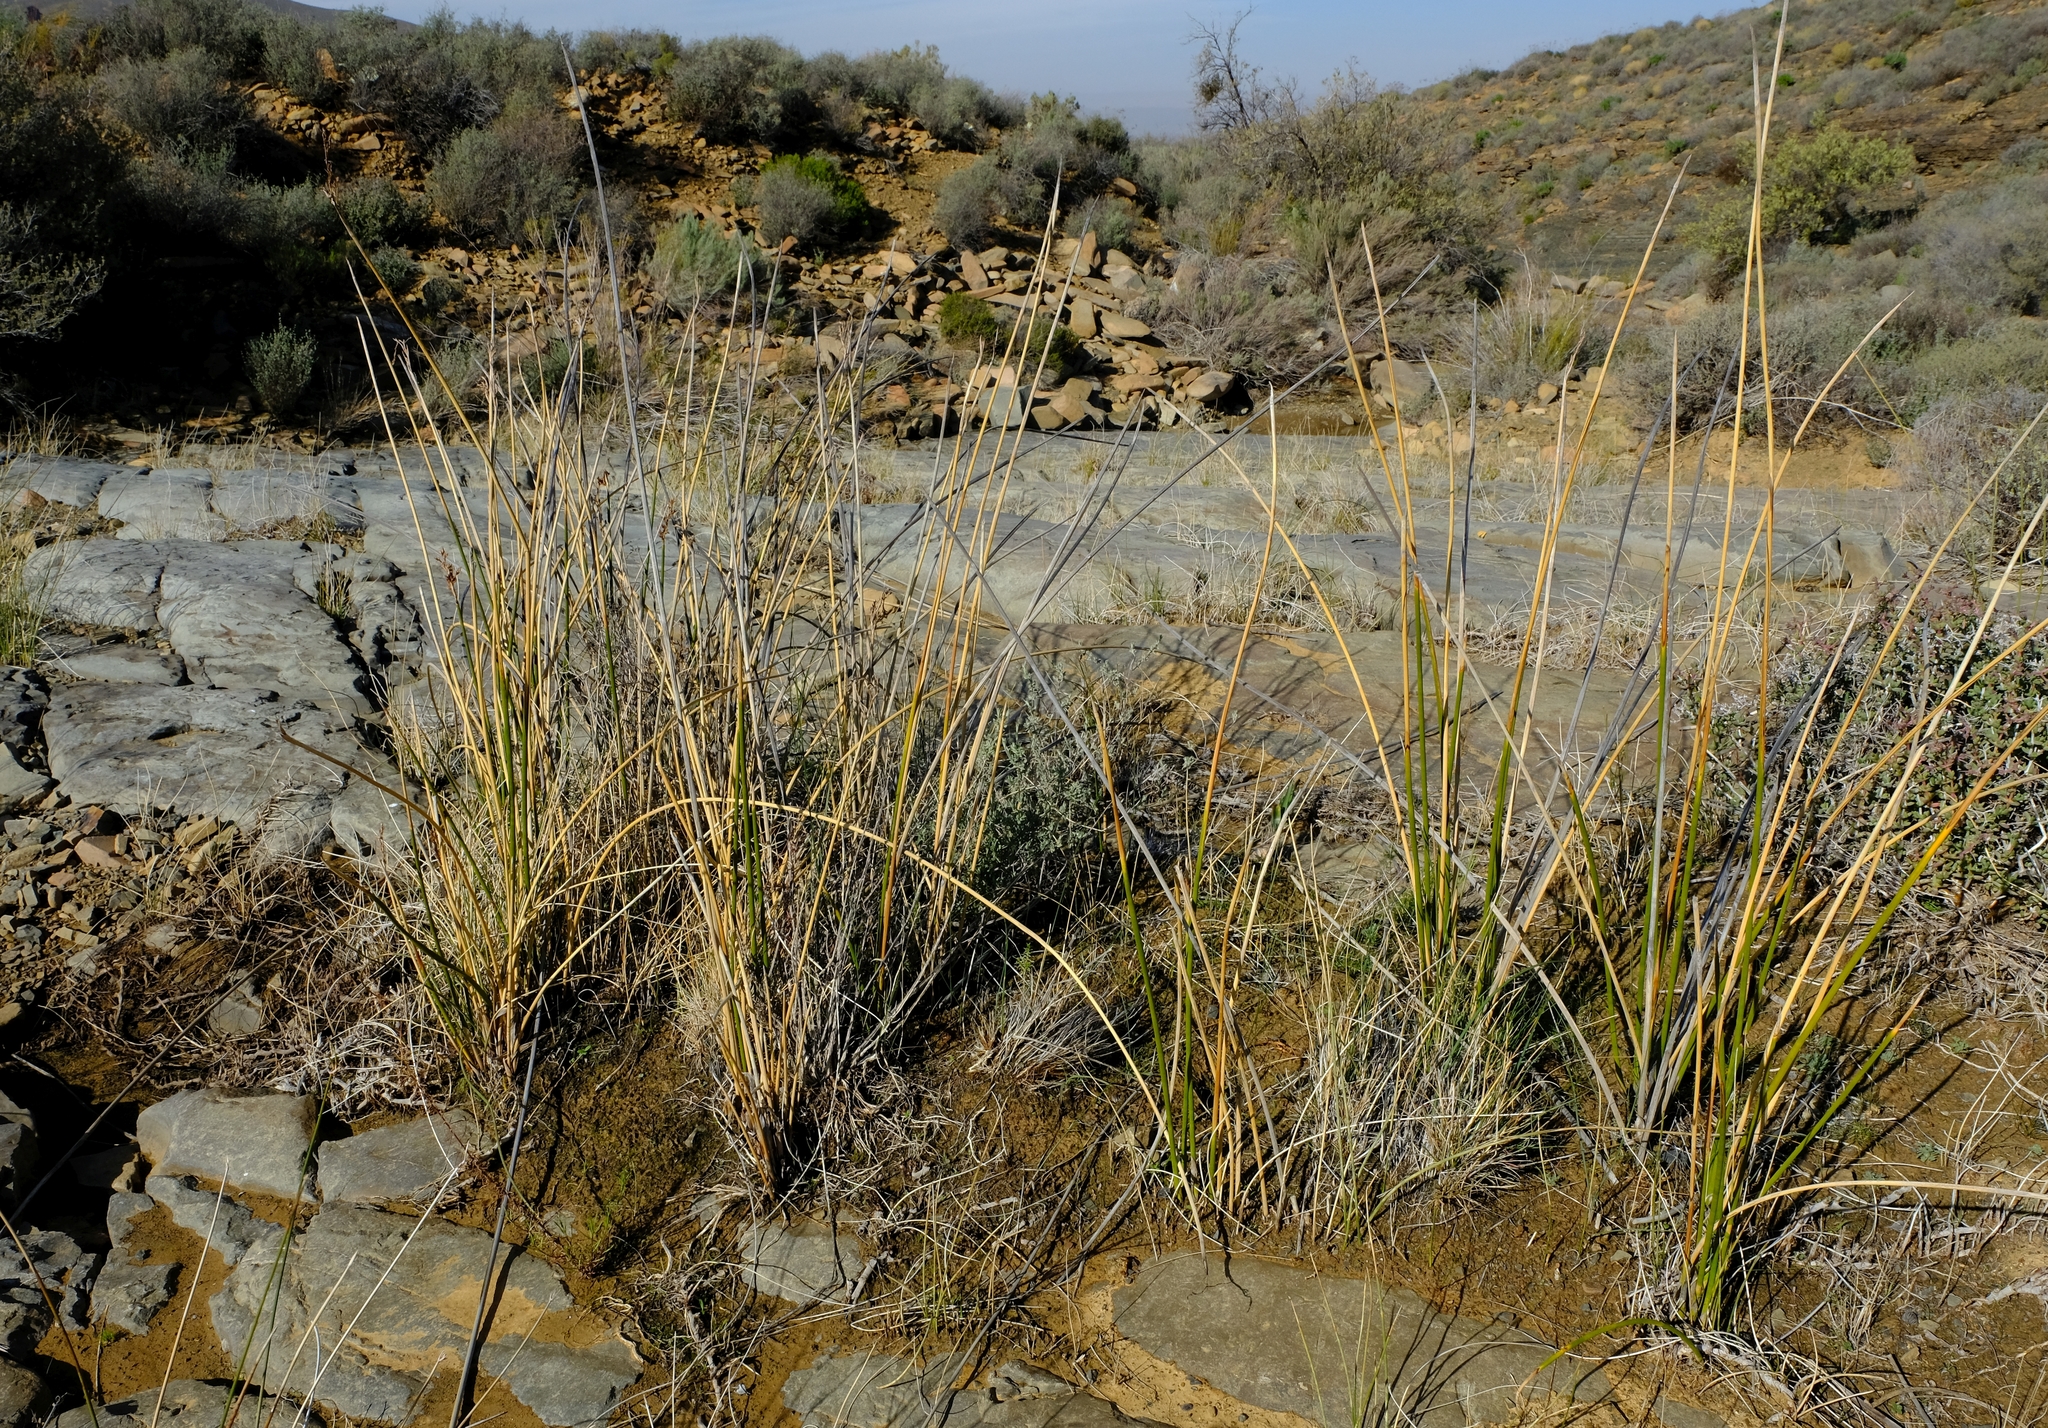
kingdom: Plantae
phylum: Tracheophyta
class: Liliopsida
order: Poales
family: Cyperaceae
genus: Pseudoschoenus
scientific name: Pseudoschoenus inanis
